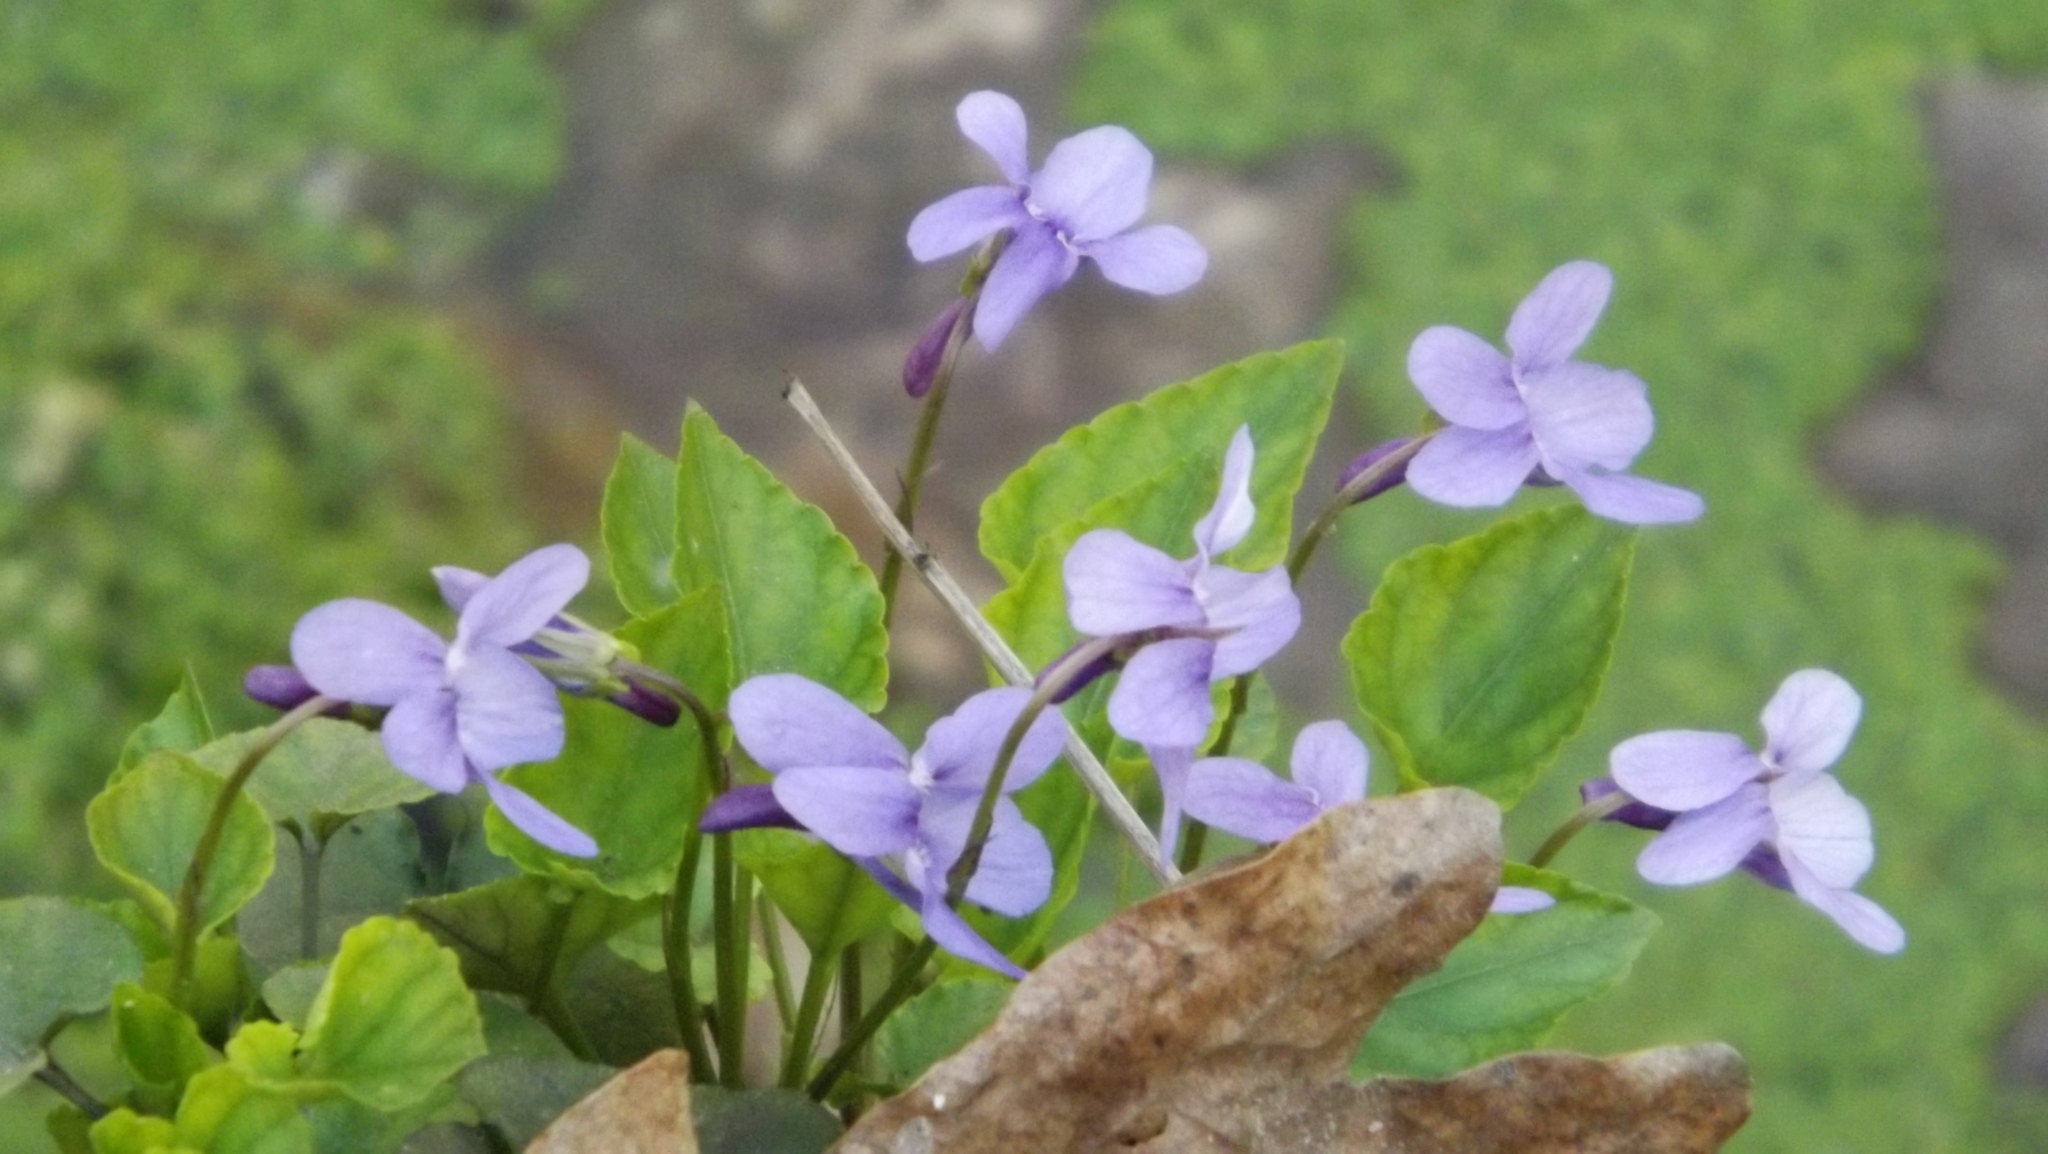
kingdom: Plantae
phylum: Tracheophyta
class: Magnoliopsida
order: Malpighiales
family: Violaceae
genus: Viola
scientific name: Viola reichenbachiana
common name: Early dog-violet
